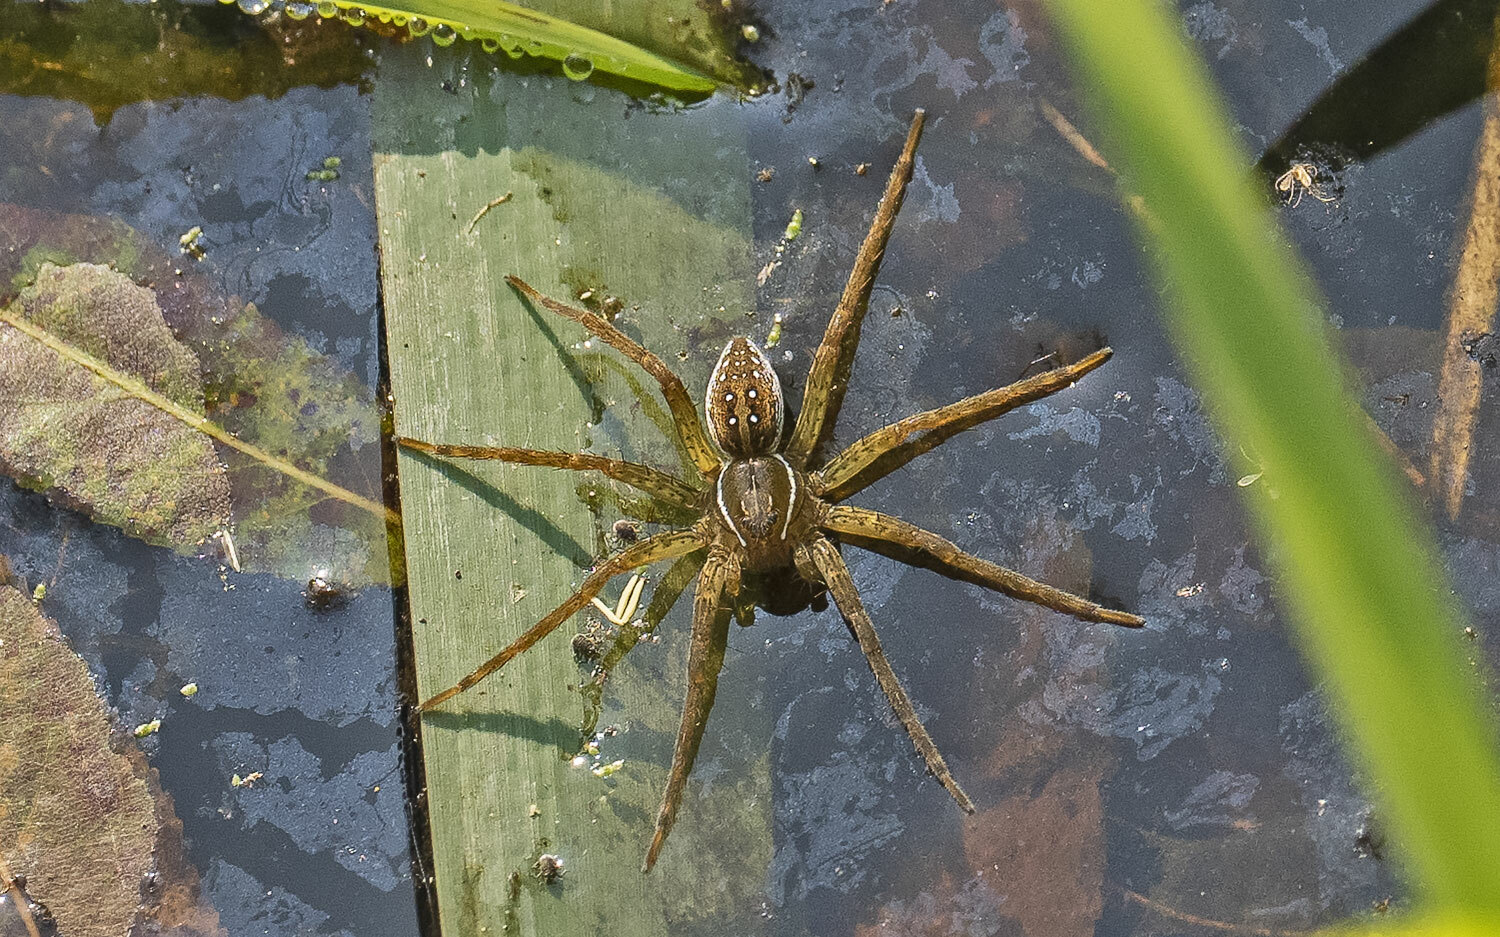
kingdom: Animalia
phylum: Arthropoda
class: Arachnida
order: Araneae
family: Pisauridae
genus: Dolomedes
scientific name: Dolomedes triton
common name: Six-spotted fishing spider
